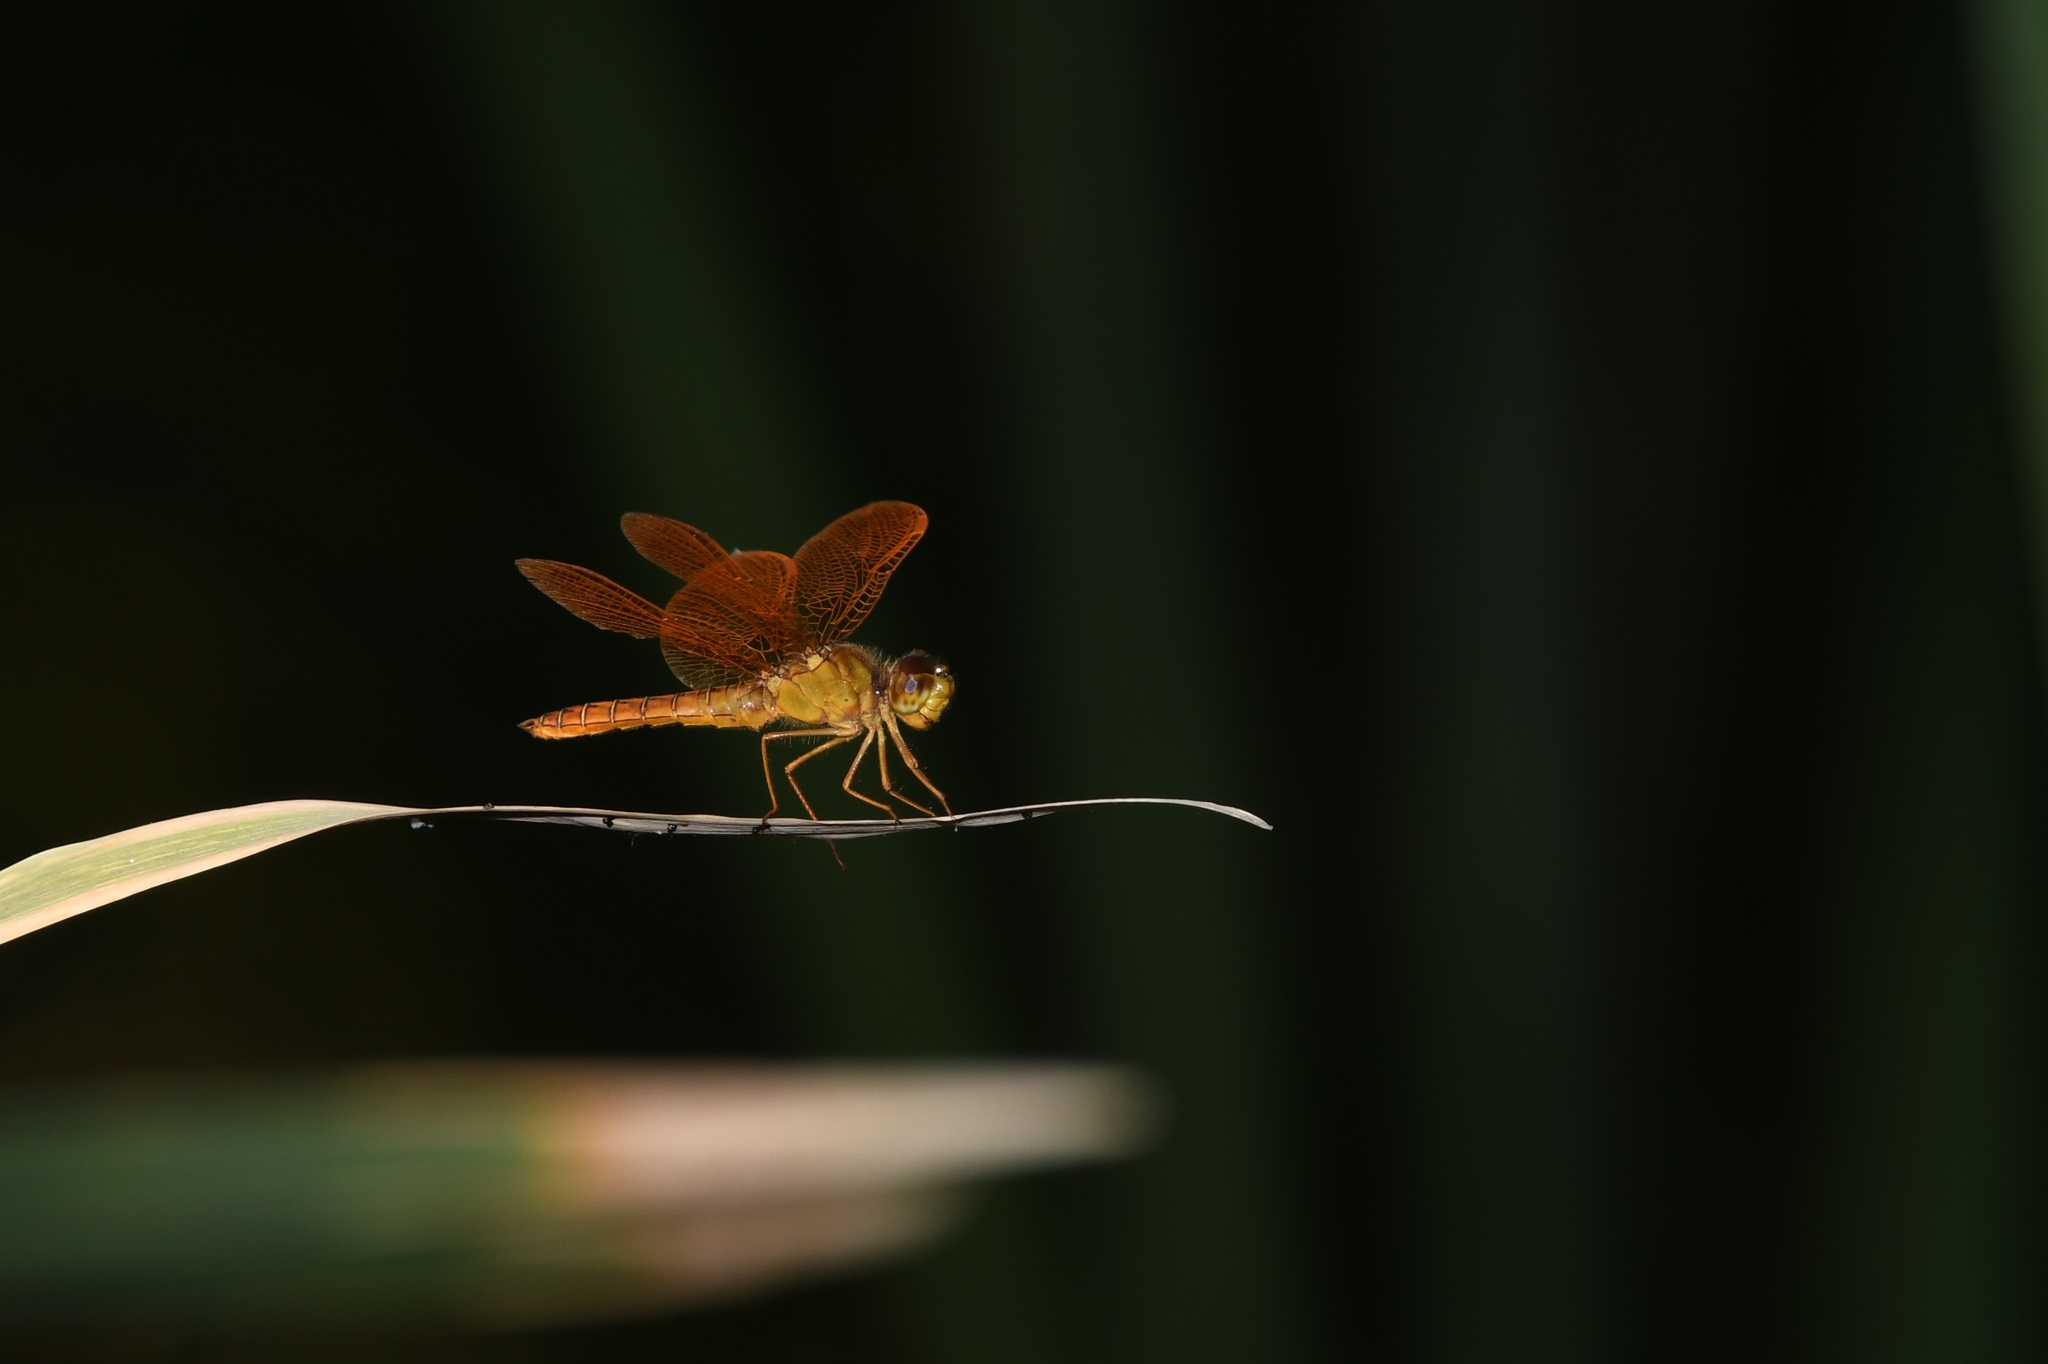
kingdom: Animalia
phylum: Arthropoda
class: Insecta
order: Odonata
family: Libellulidae
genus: Perithemis
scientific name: Perithemis intensa
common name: Mexican amberwing
